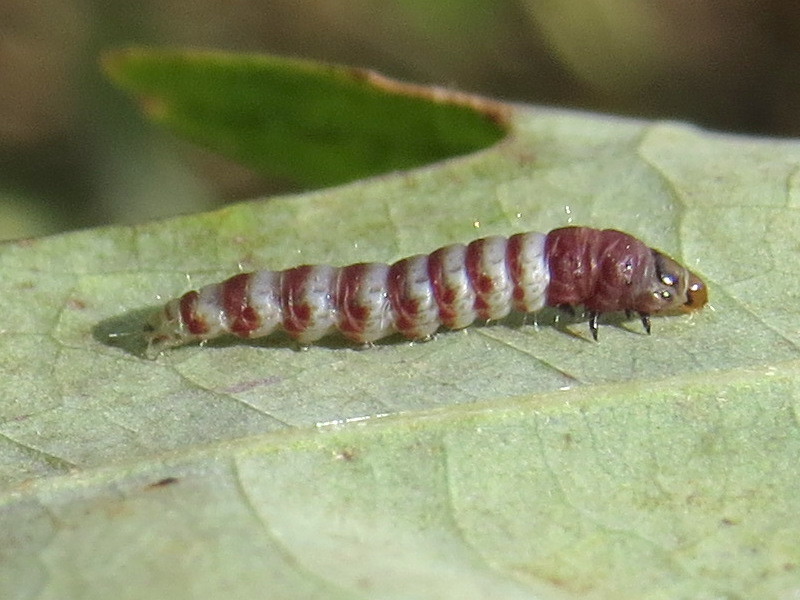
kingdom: Animalia
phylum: Arthropoda
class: Insecta
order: Lepidoptera
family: Gelechiidae
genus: Arogalea
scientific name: Arogalea cristifasciella
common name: White stripe-backed moth
